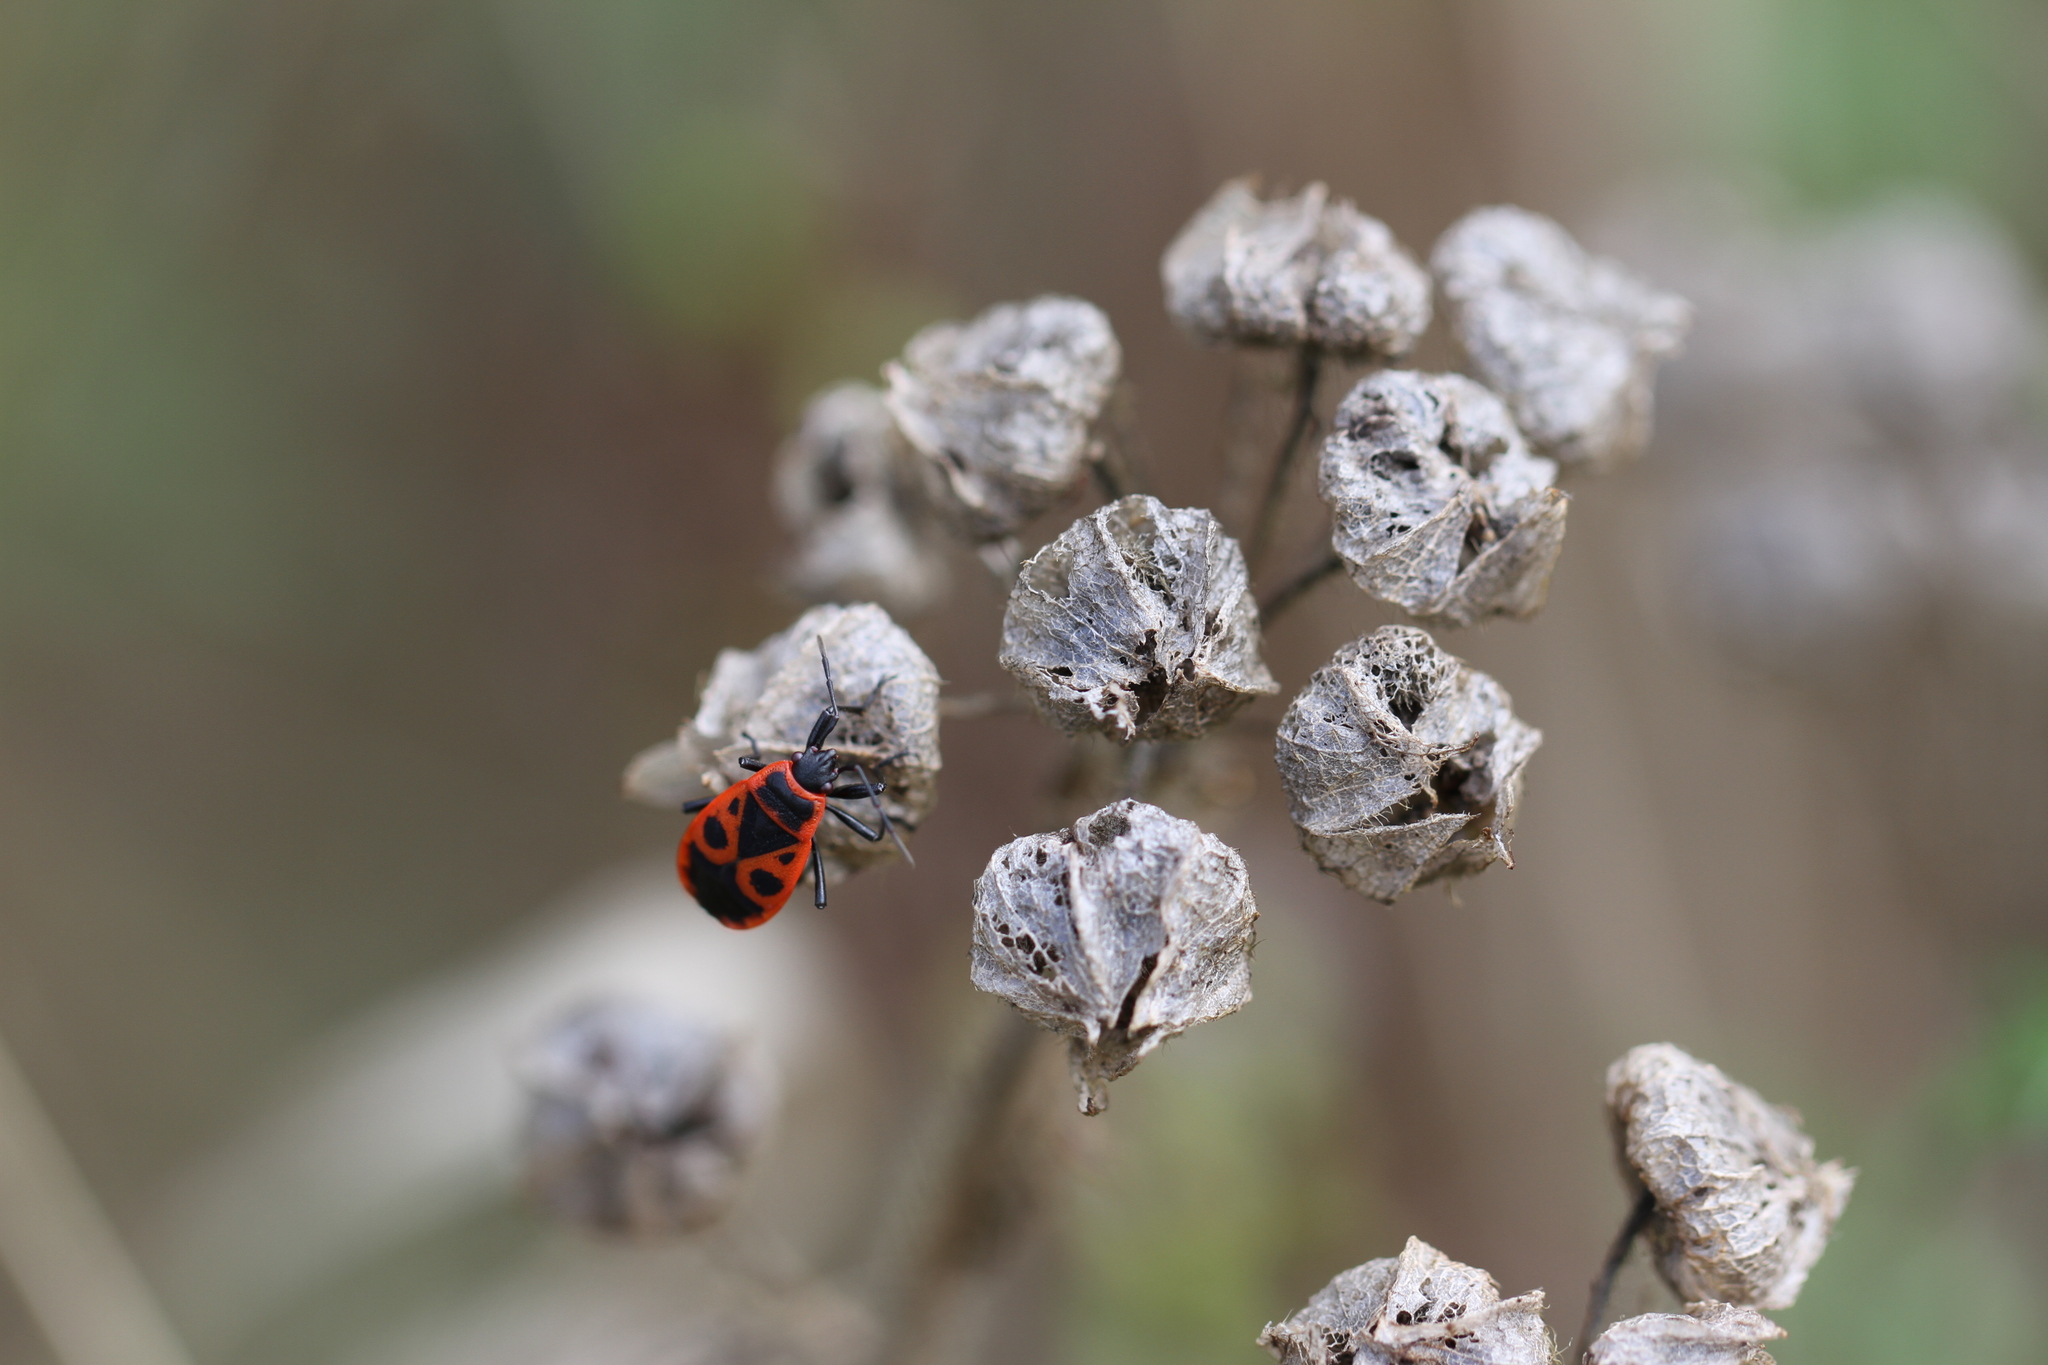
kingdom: Animalia
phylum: Arthropoda
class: Insecta
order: Hemiptera
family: Pyrrhocoridae
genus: Pyrrhocoris
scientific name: Pyrrhocoris apterus
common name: Firebug
